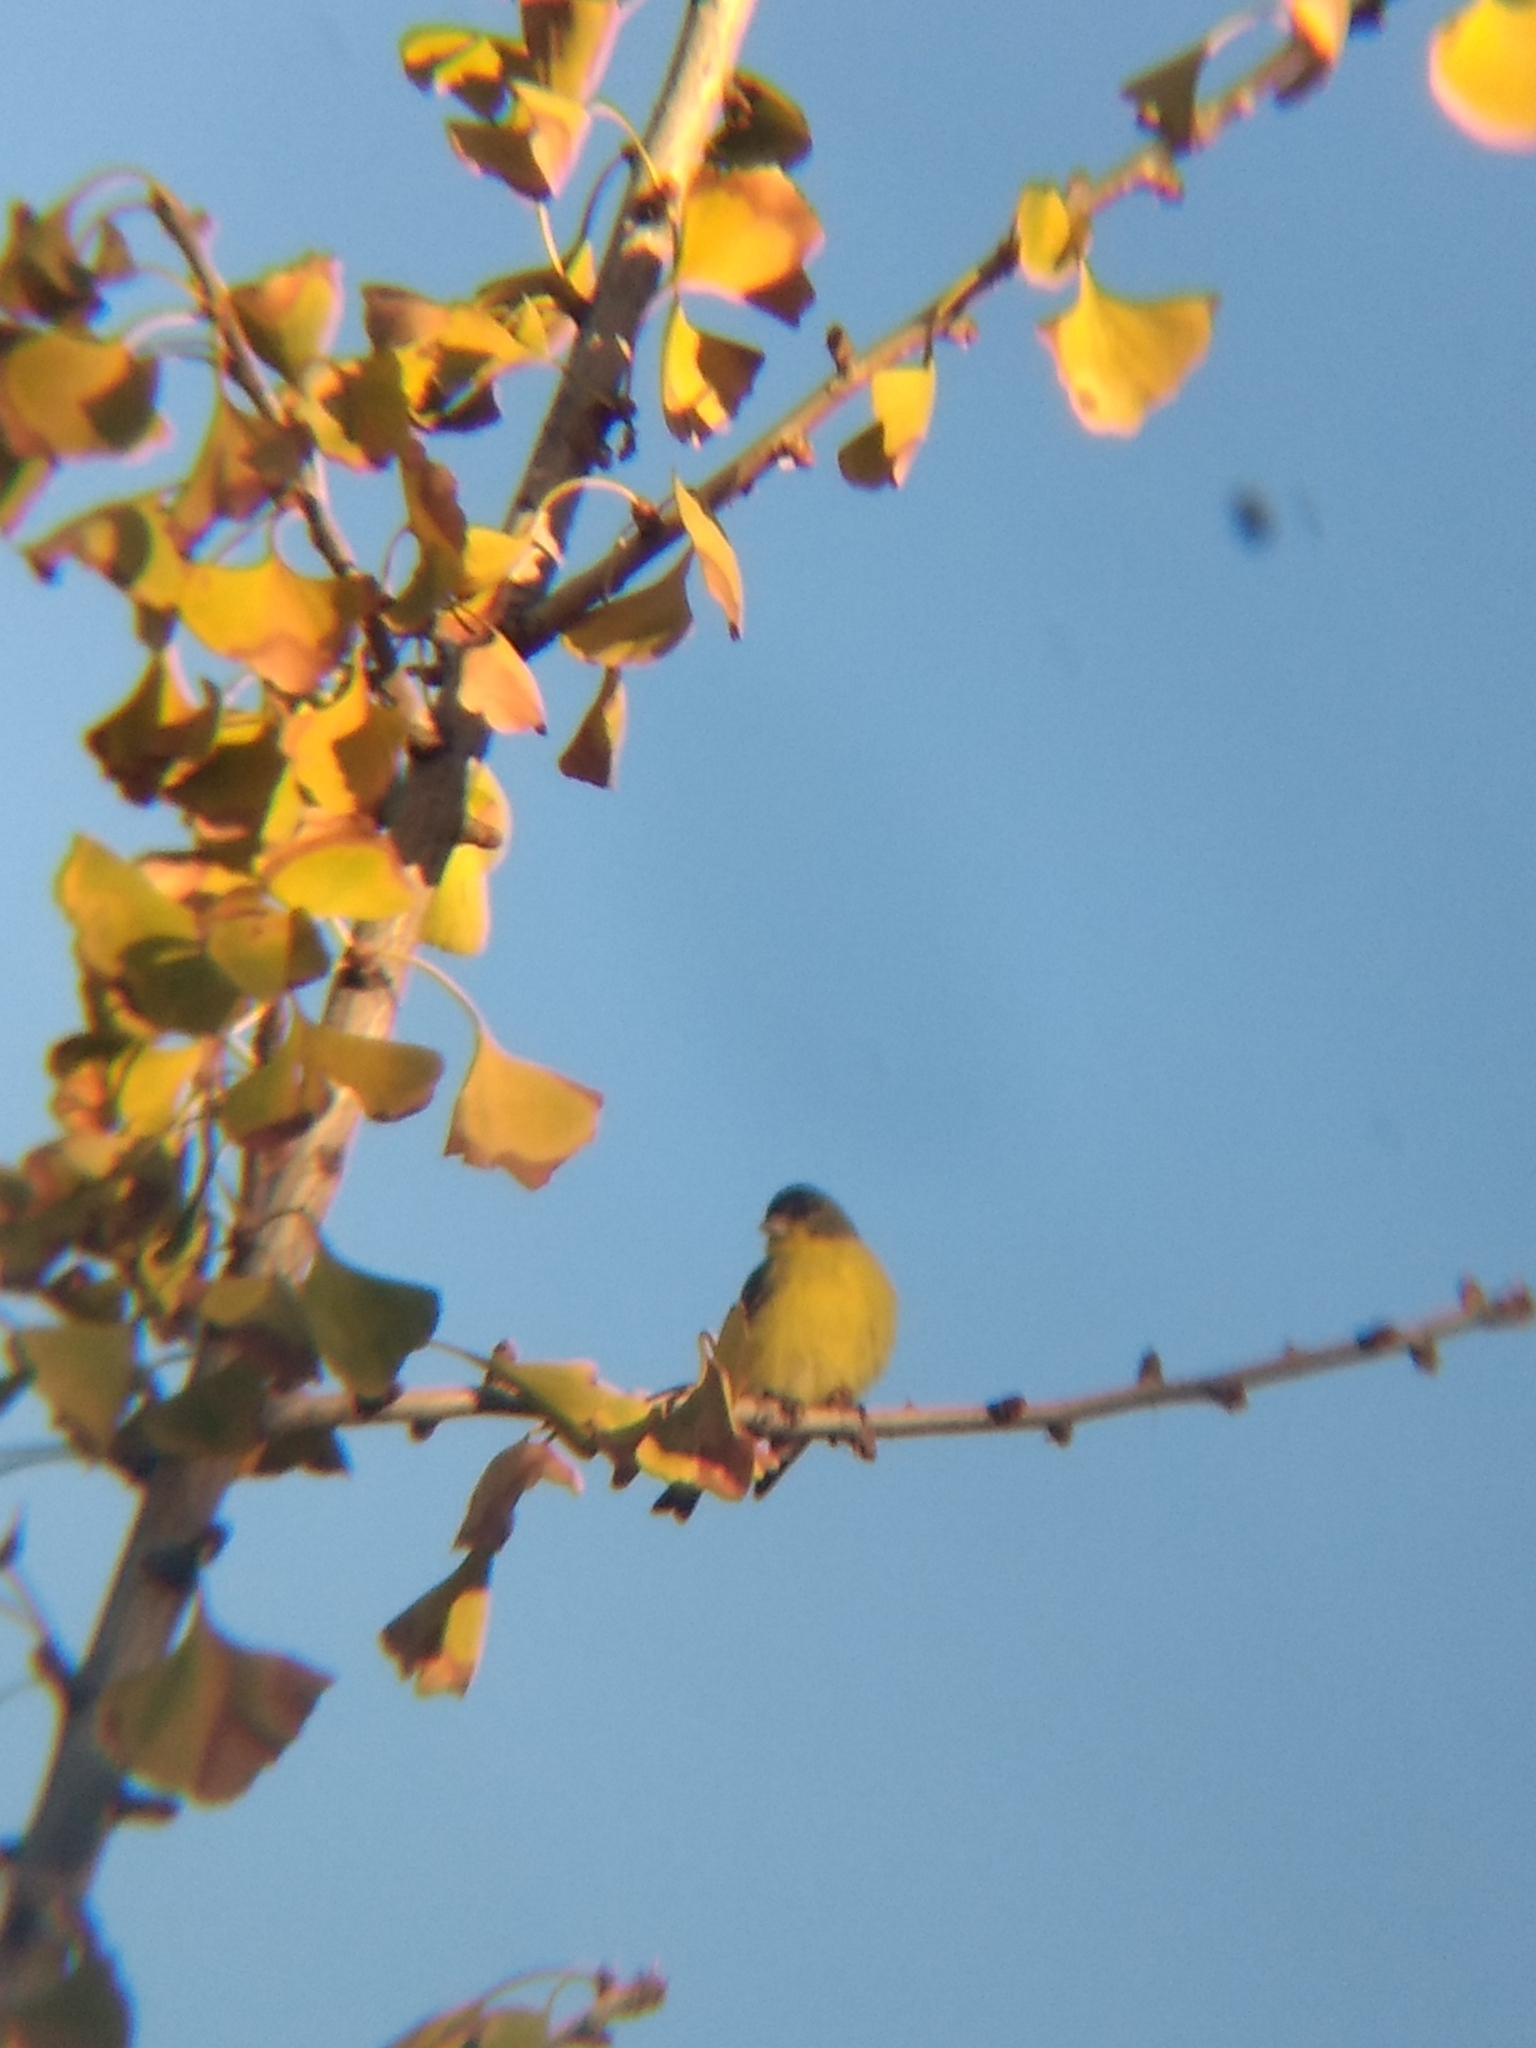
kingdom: Animalia
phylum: Chordata
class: Aves
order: Passeriformes
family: Fringillidae
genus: Spinus
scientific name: Spinus psaltria
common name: Lesser goldfinch
